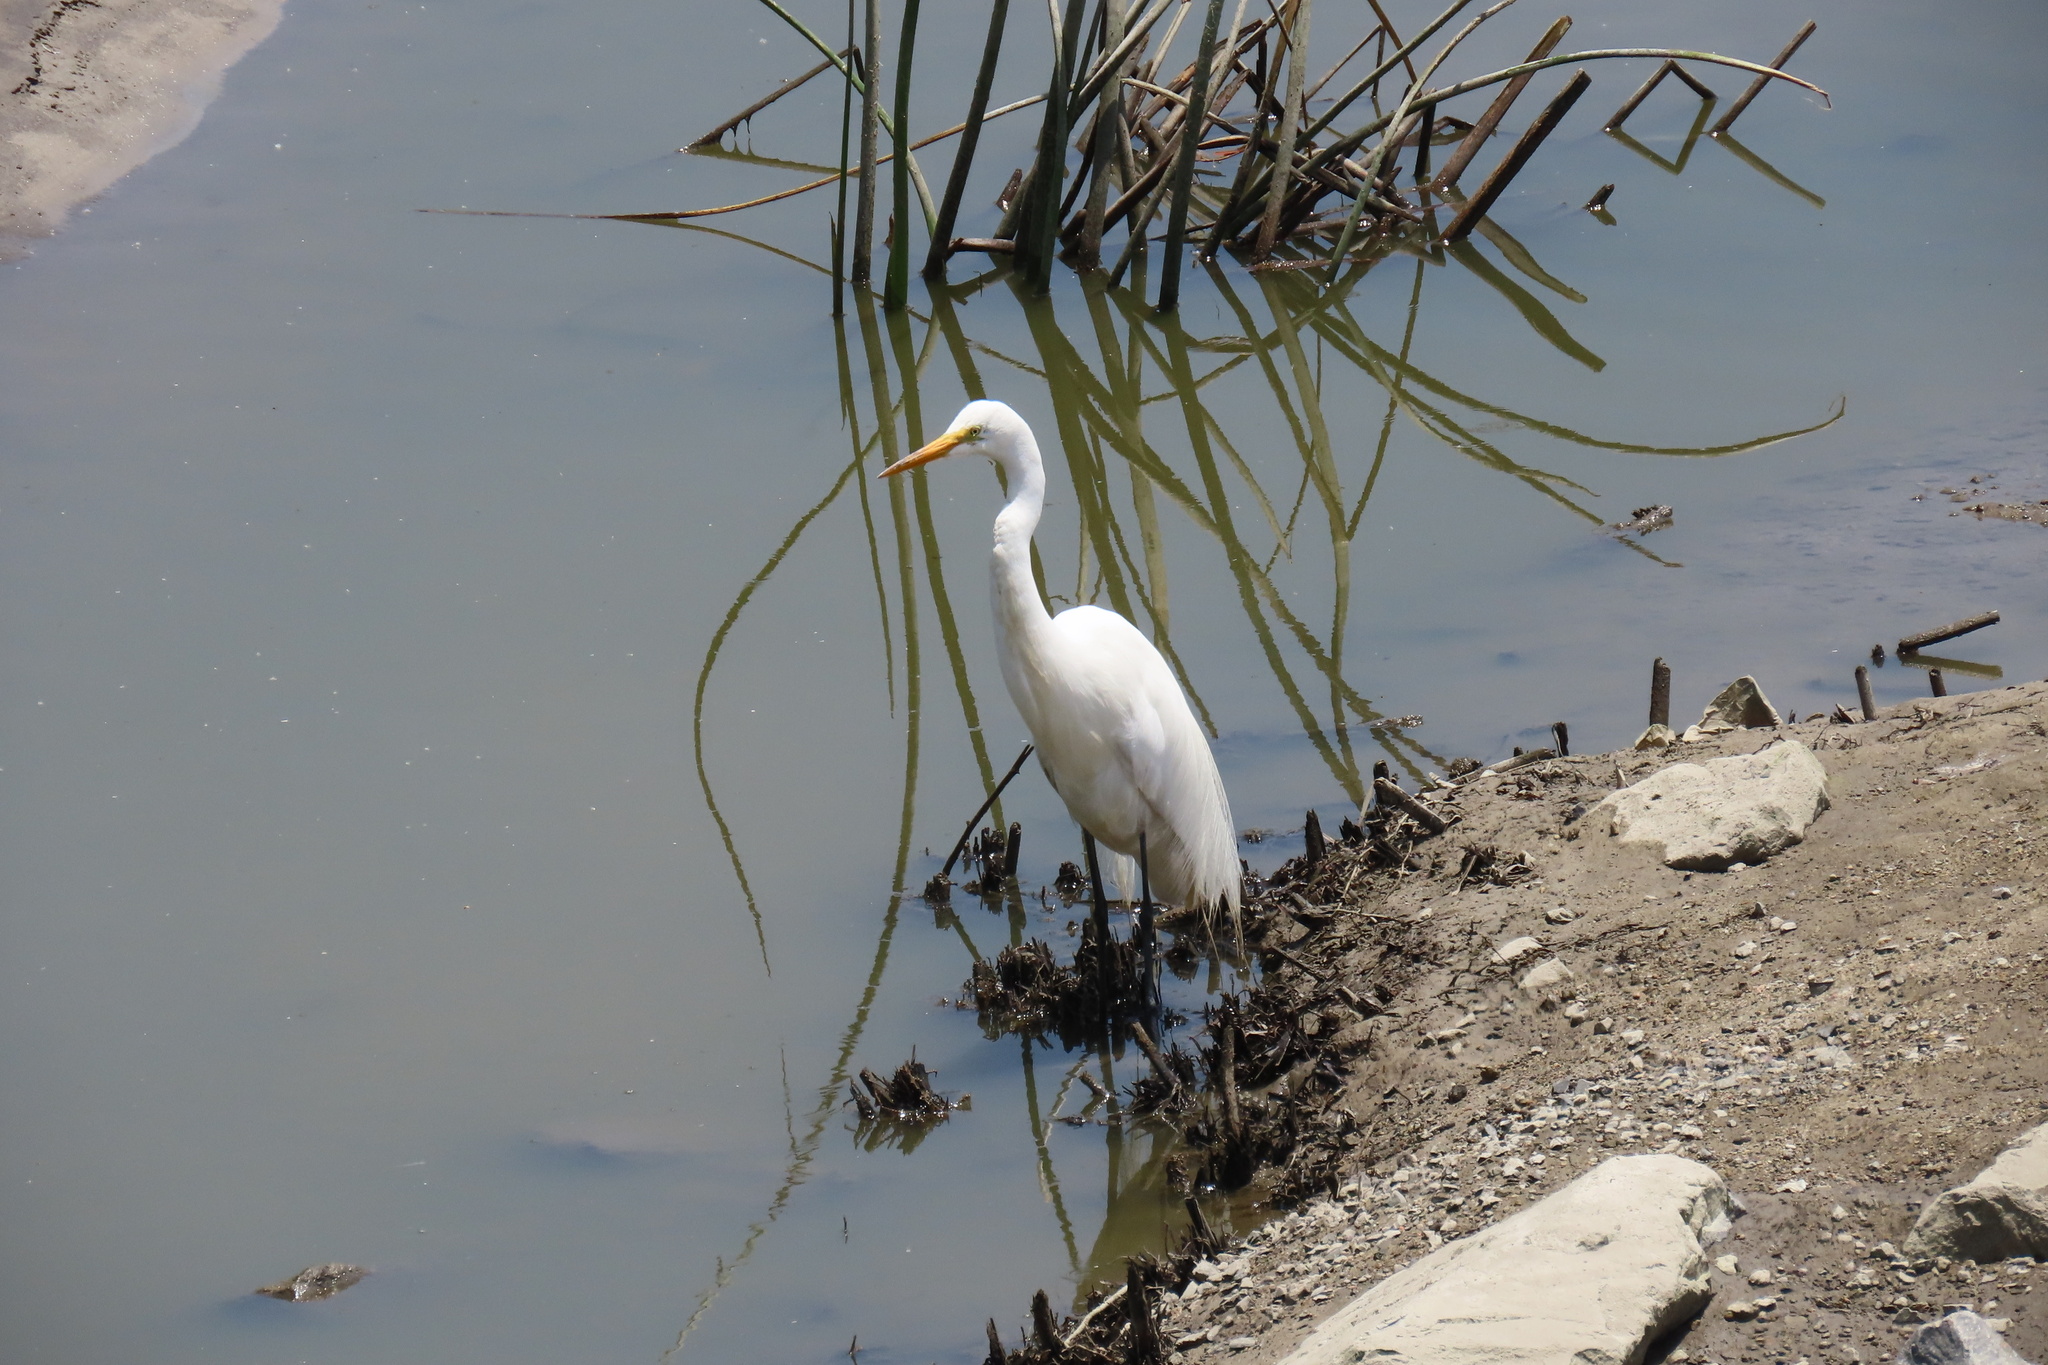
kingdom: Animalia
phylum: Chordata
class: Aves
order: Pelecaniformes
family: Ardeidae
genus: Ardea
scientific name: Ardea alba
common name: Great egret
